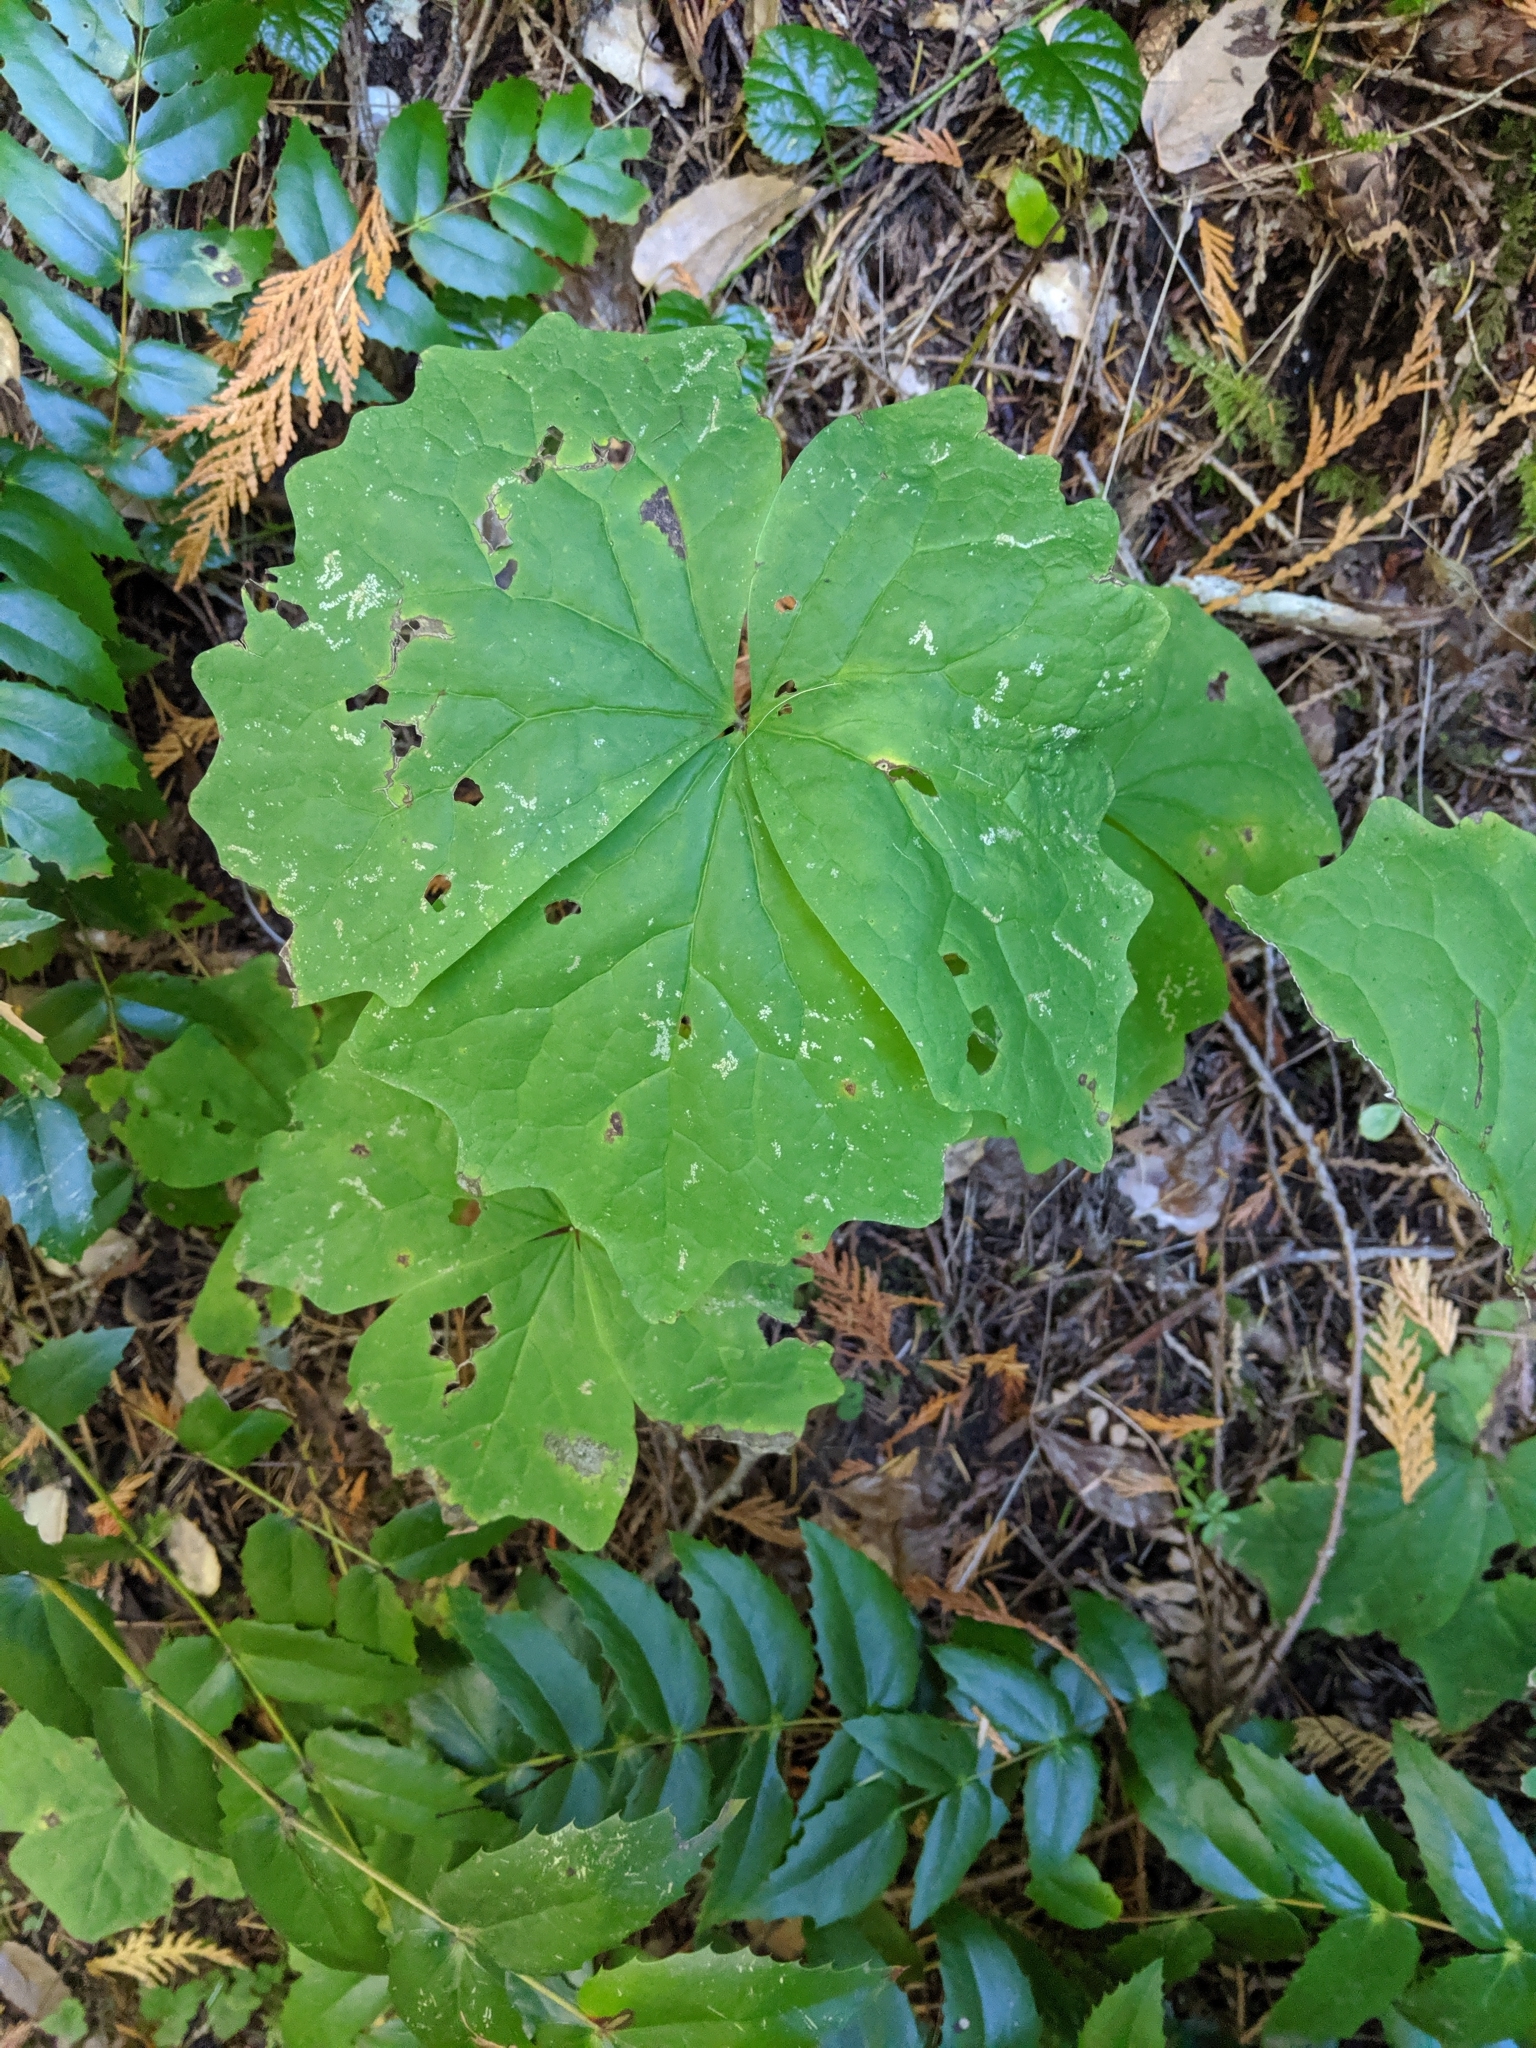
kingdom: Plantae
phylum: Tracheophyta
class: Magnoliopsida
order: Ranunculales
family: Berberidaceae
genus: Achlys
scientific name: Achlys californica
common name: California deer-foot
